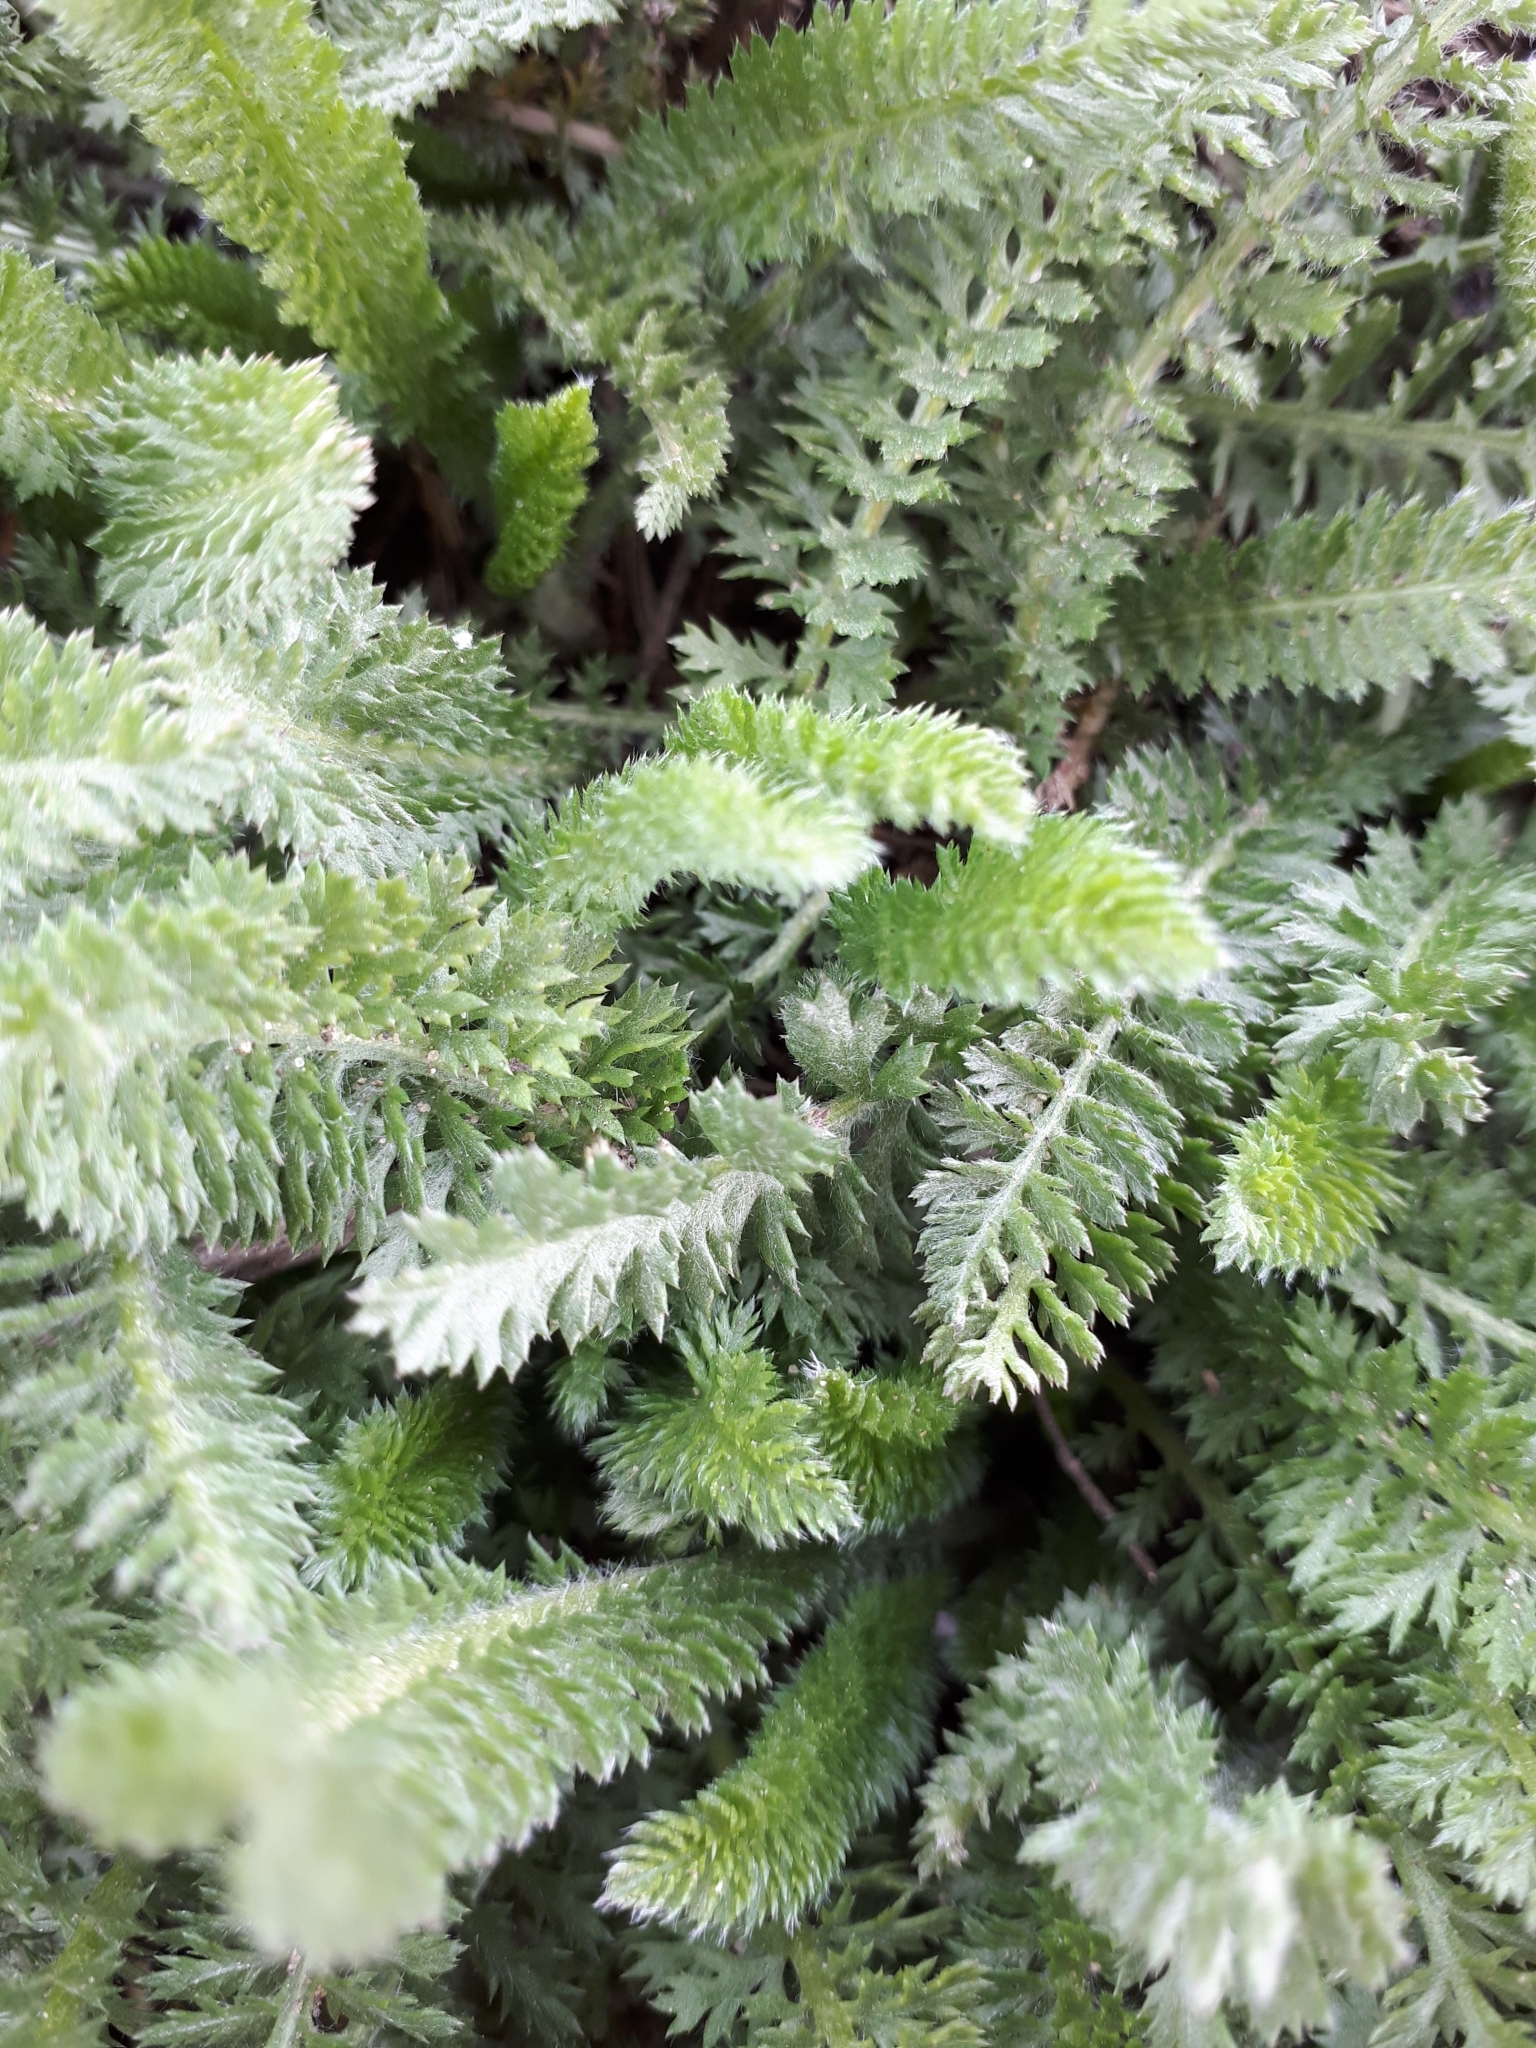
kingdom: Plantae
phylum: Tracheophyta
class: Magnoliopsida
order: Asterales
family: Asteraceae
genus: Achillea
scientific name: Achillea millefolium
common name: Yarrow
